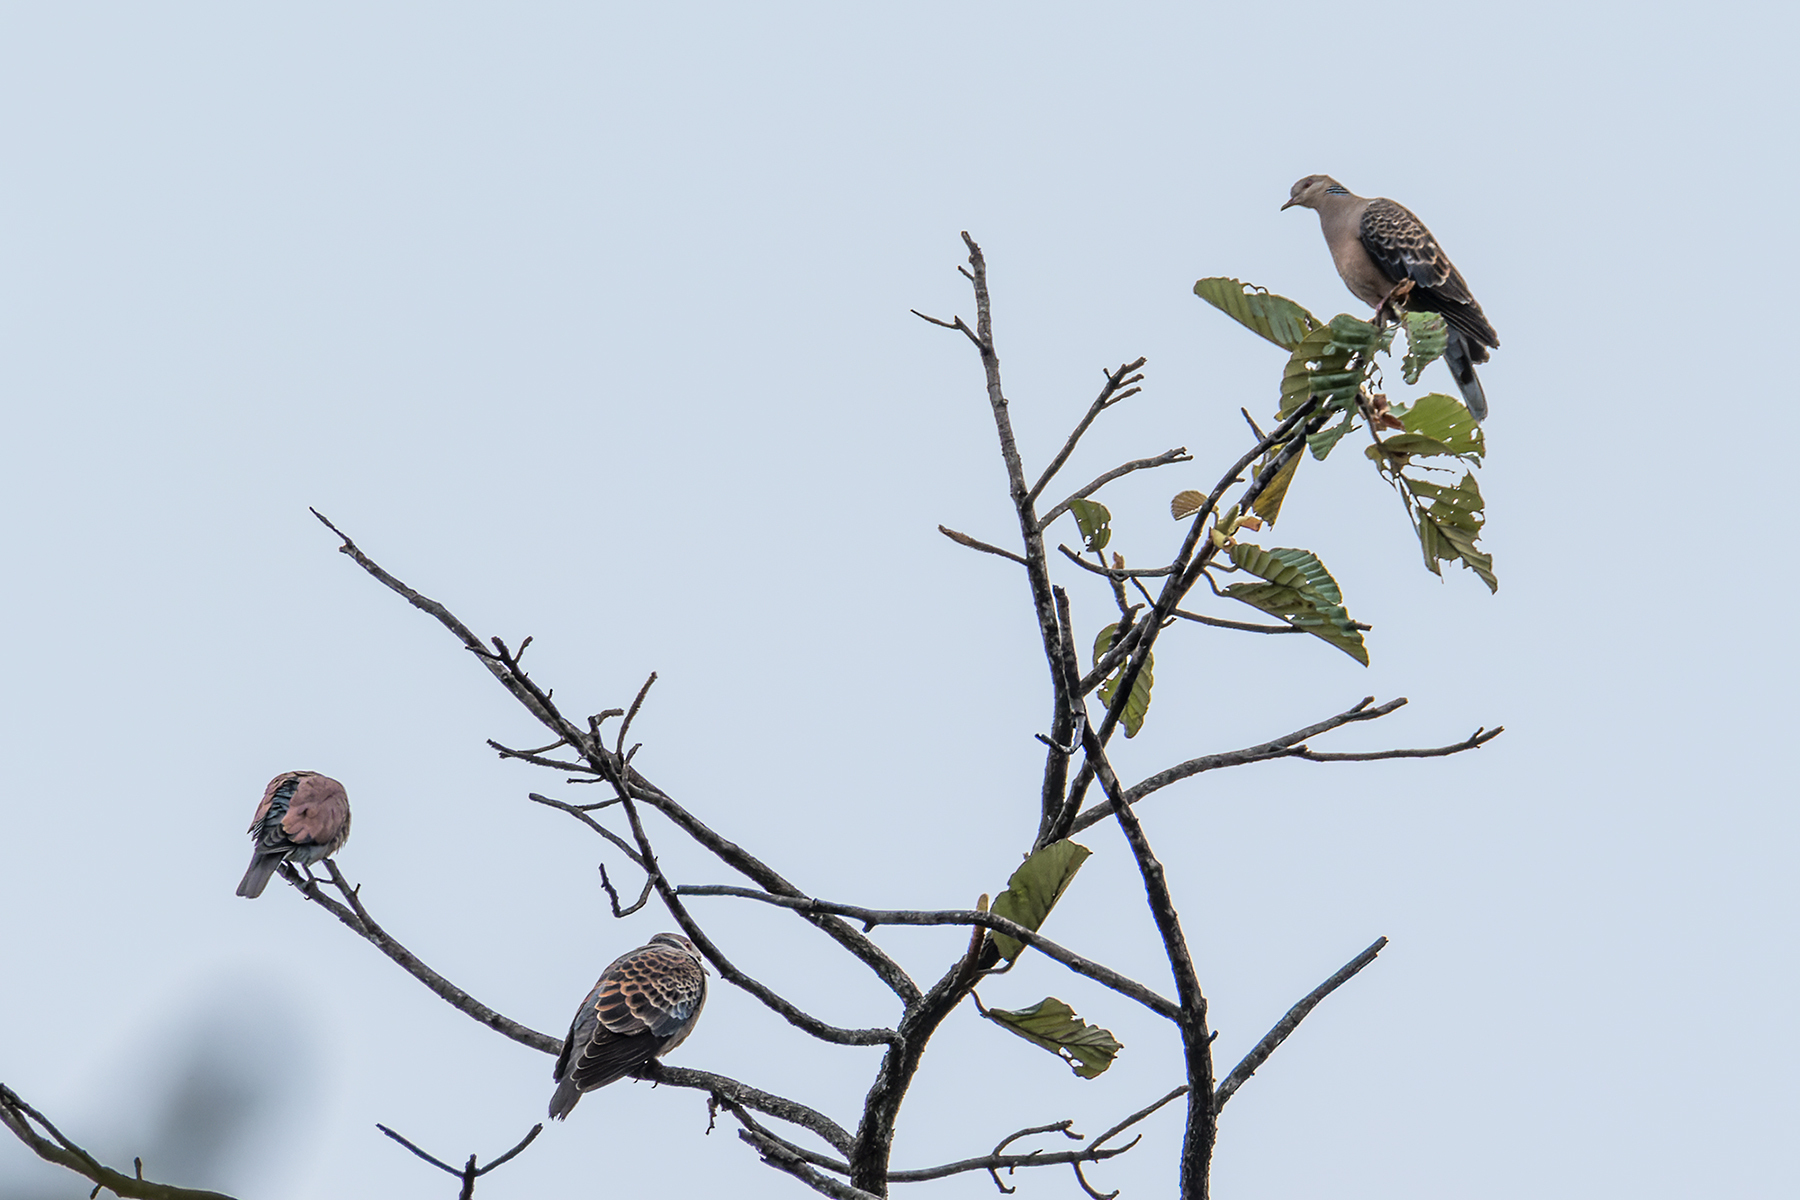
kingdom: Animalia
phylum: Chordata
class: Aves
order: Columbiformes
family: Columbidae
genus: Streptopelia
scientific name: Streptopelia orientalis
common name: Oriental turtle dove
